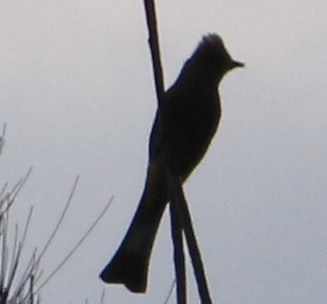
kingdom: Animalia
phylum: Chordata
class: Aves
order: Passeriformes
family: Ptilogonatidae
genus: Ptilogonys
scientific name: Ptilogonys cinereus
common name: Gray silky-flycatcher
